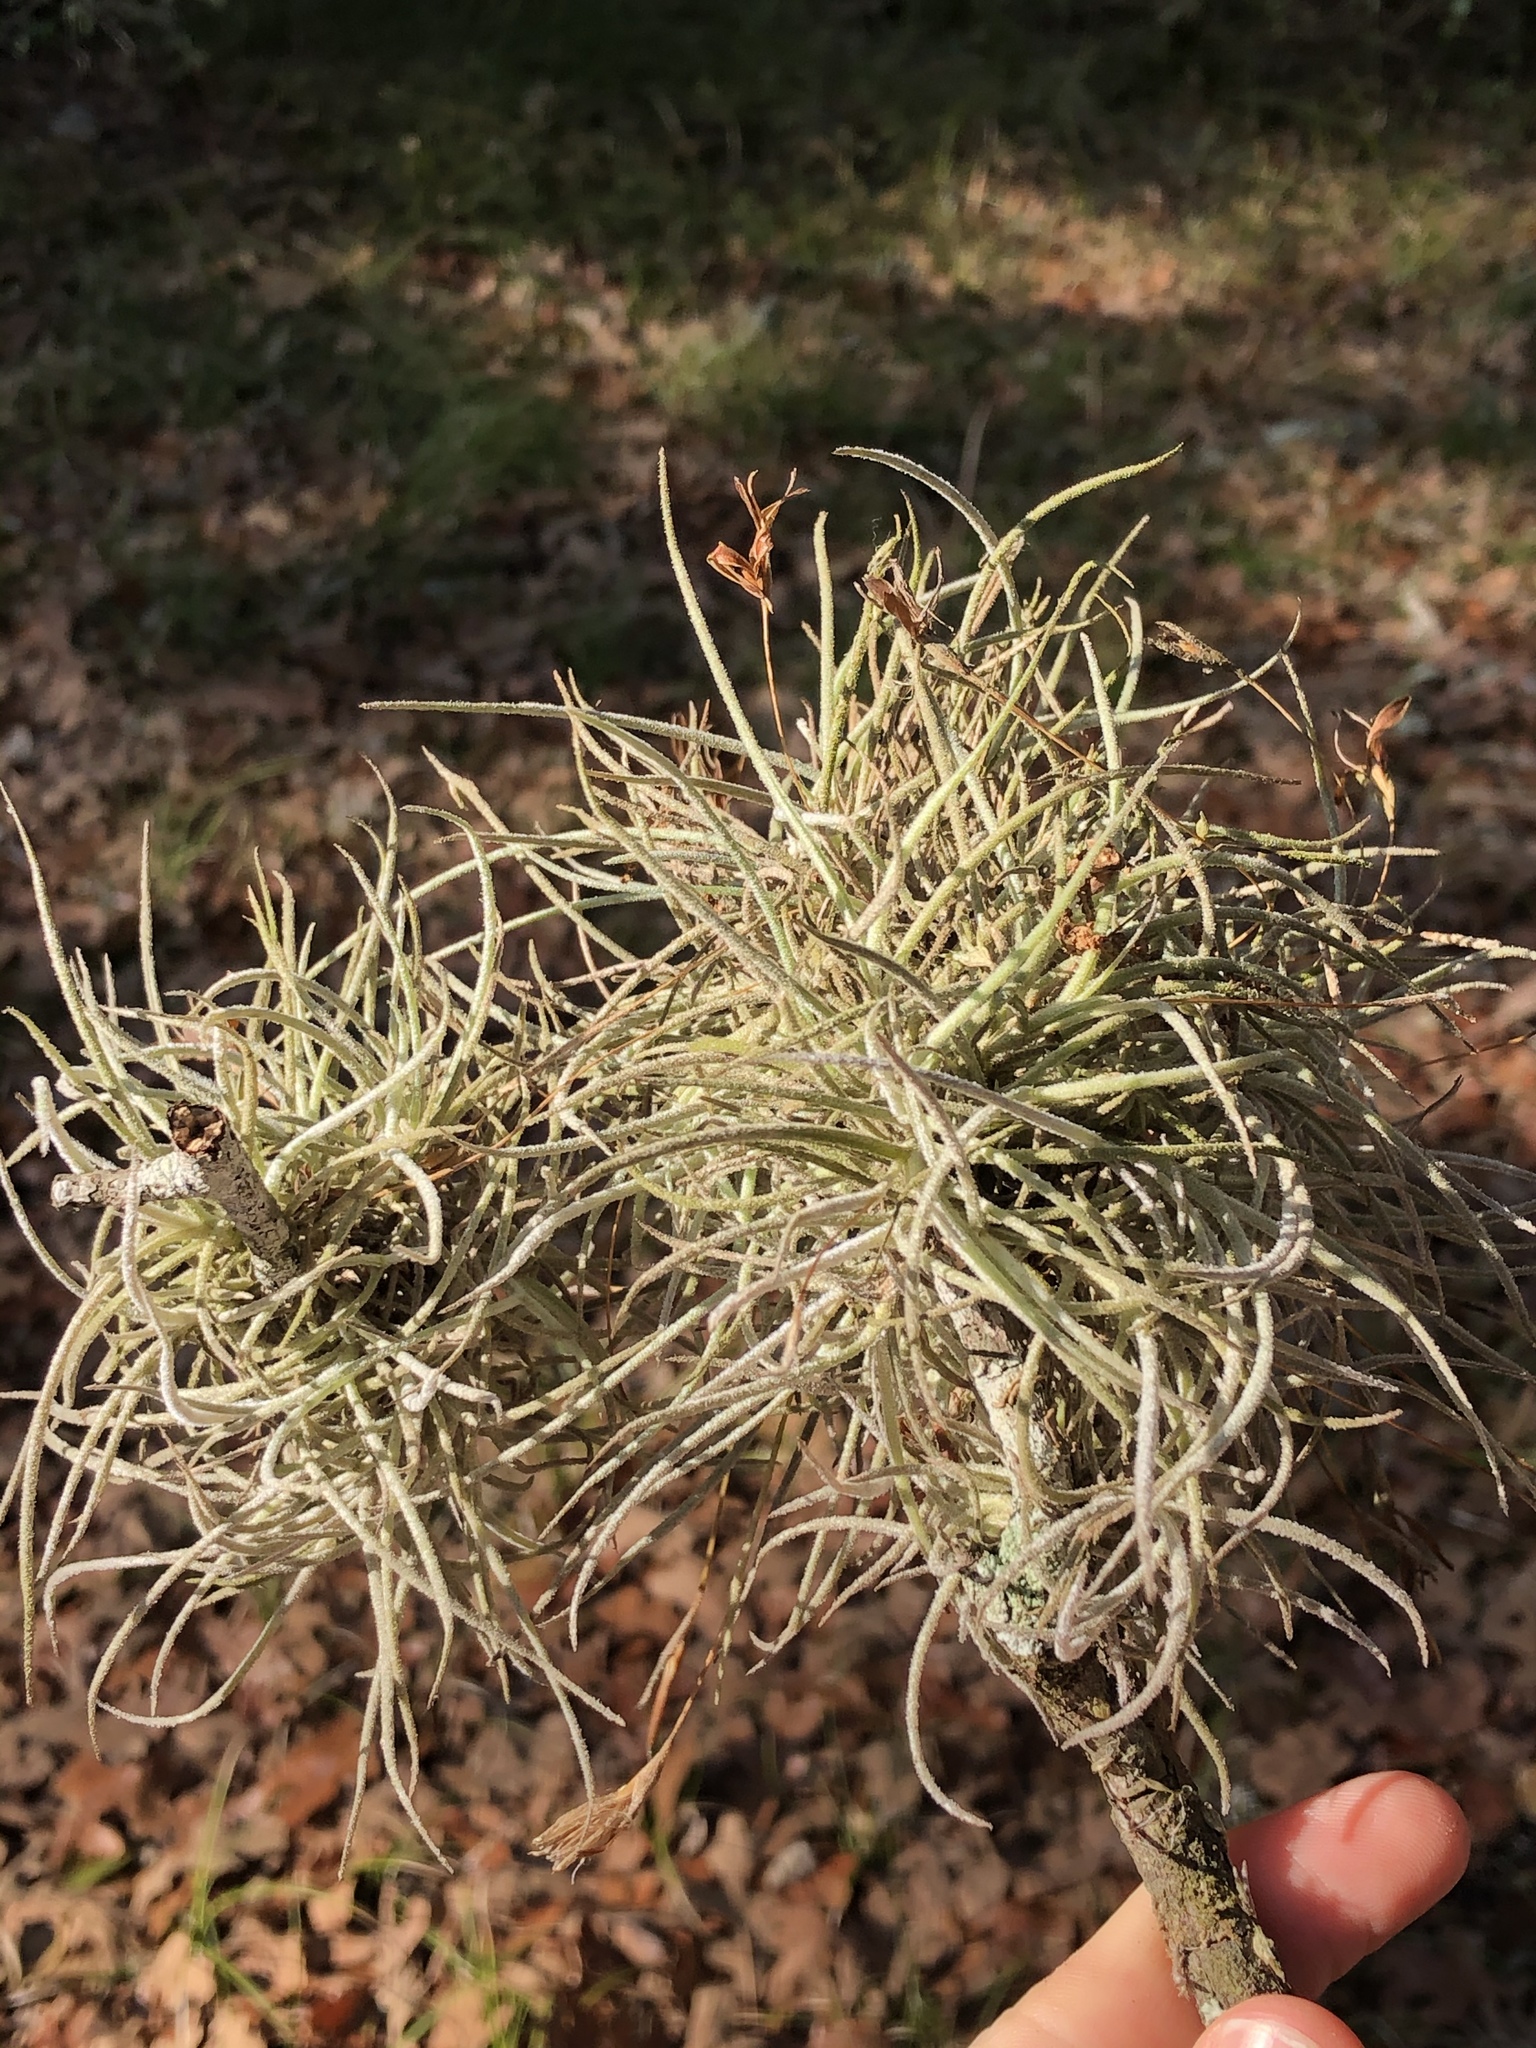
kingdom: Plantae
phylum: Tracheophyta
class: Liliopsida
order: Poales
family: Bromeliaceae
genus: Tillandsia
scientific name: Tillandsia recurvata
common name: Small ballmoss
